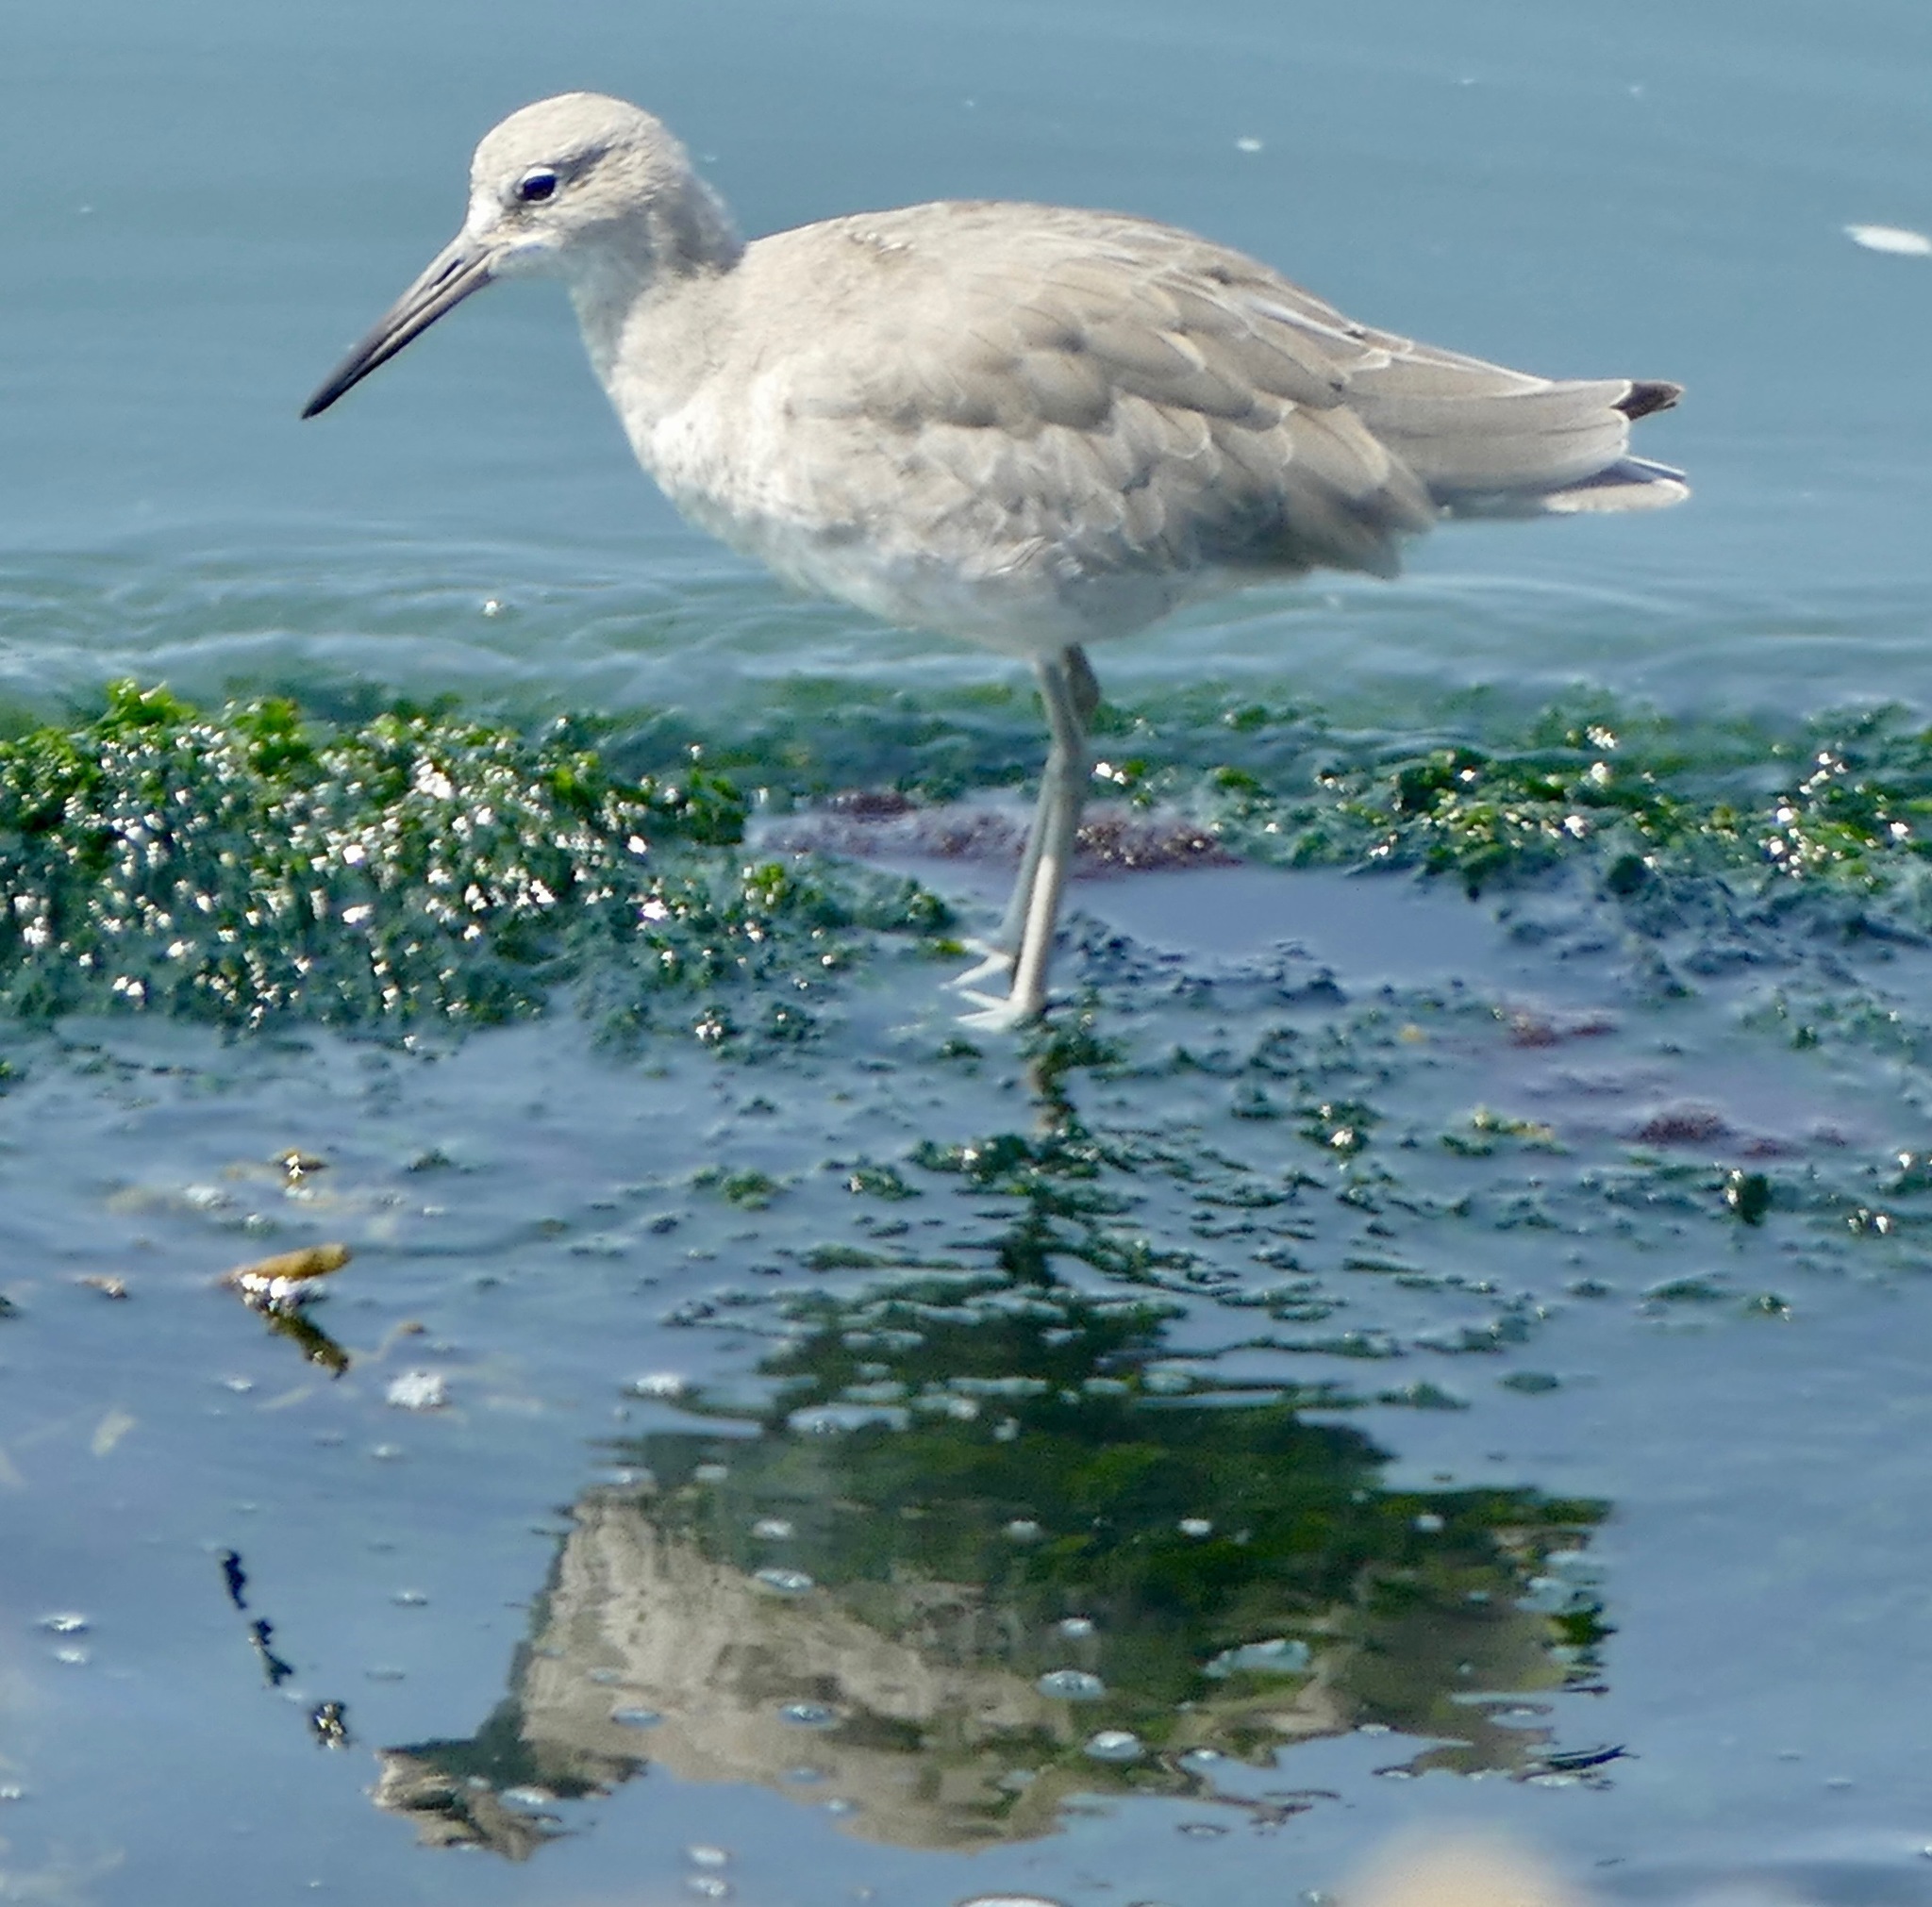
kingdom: Animalia
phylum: Chordata
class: Aves
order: Charadriiformes
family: Scolopacidae
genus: Tringa
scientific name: Tringa semipalmata
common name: Willet
